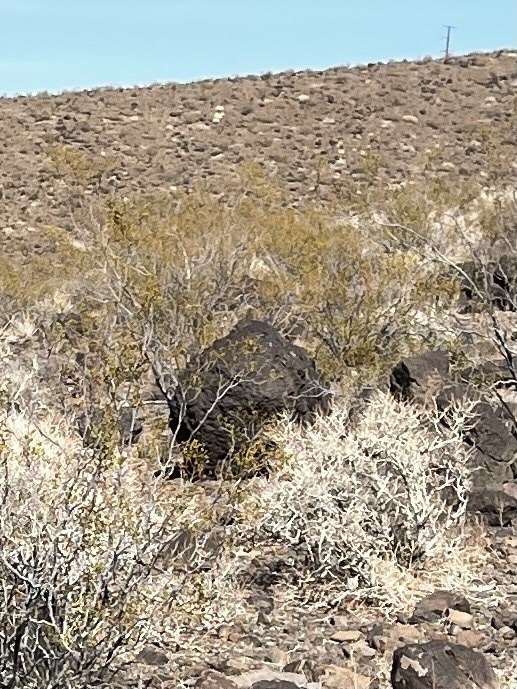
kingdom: Plantae
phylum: Tracheophyta
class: Magnoliopsida
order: Zygophyllales
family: Zygophyllaceae
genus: Larrea
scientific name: Larrea tridentata
